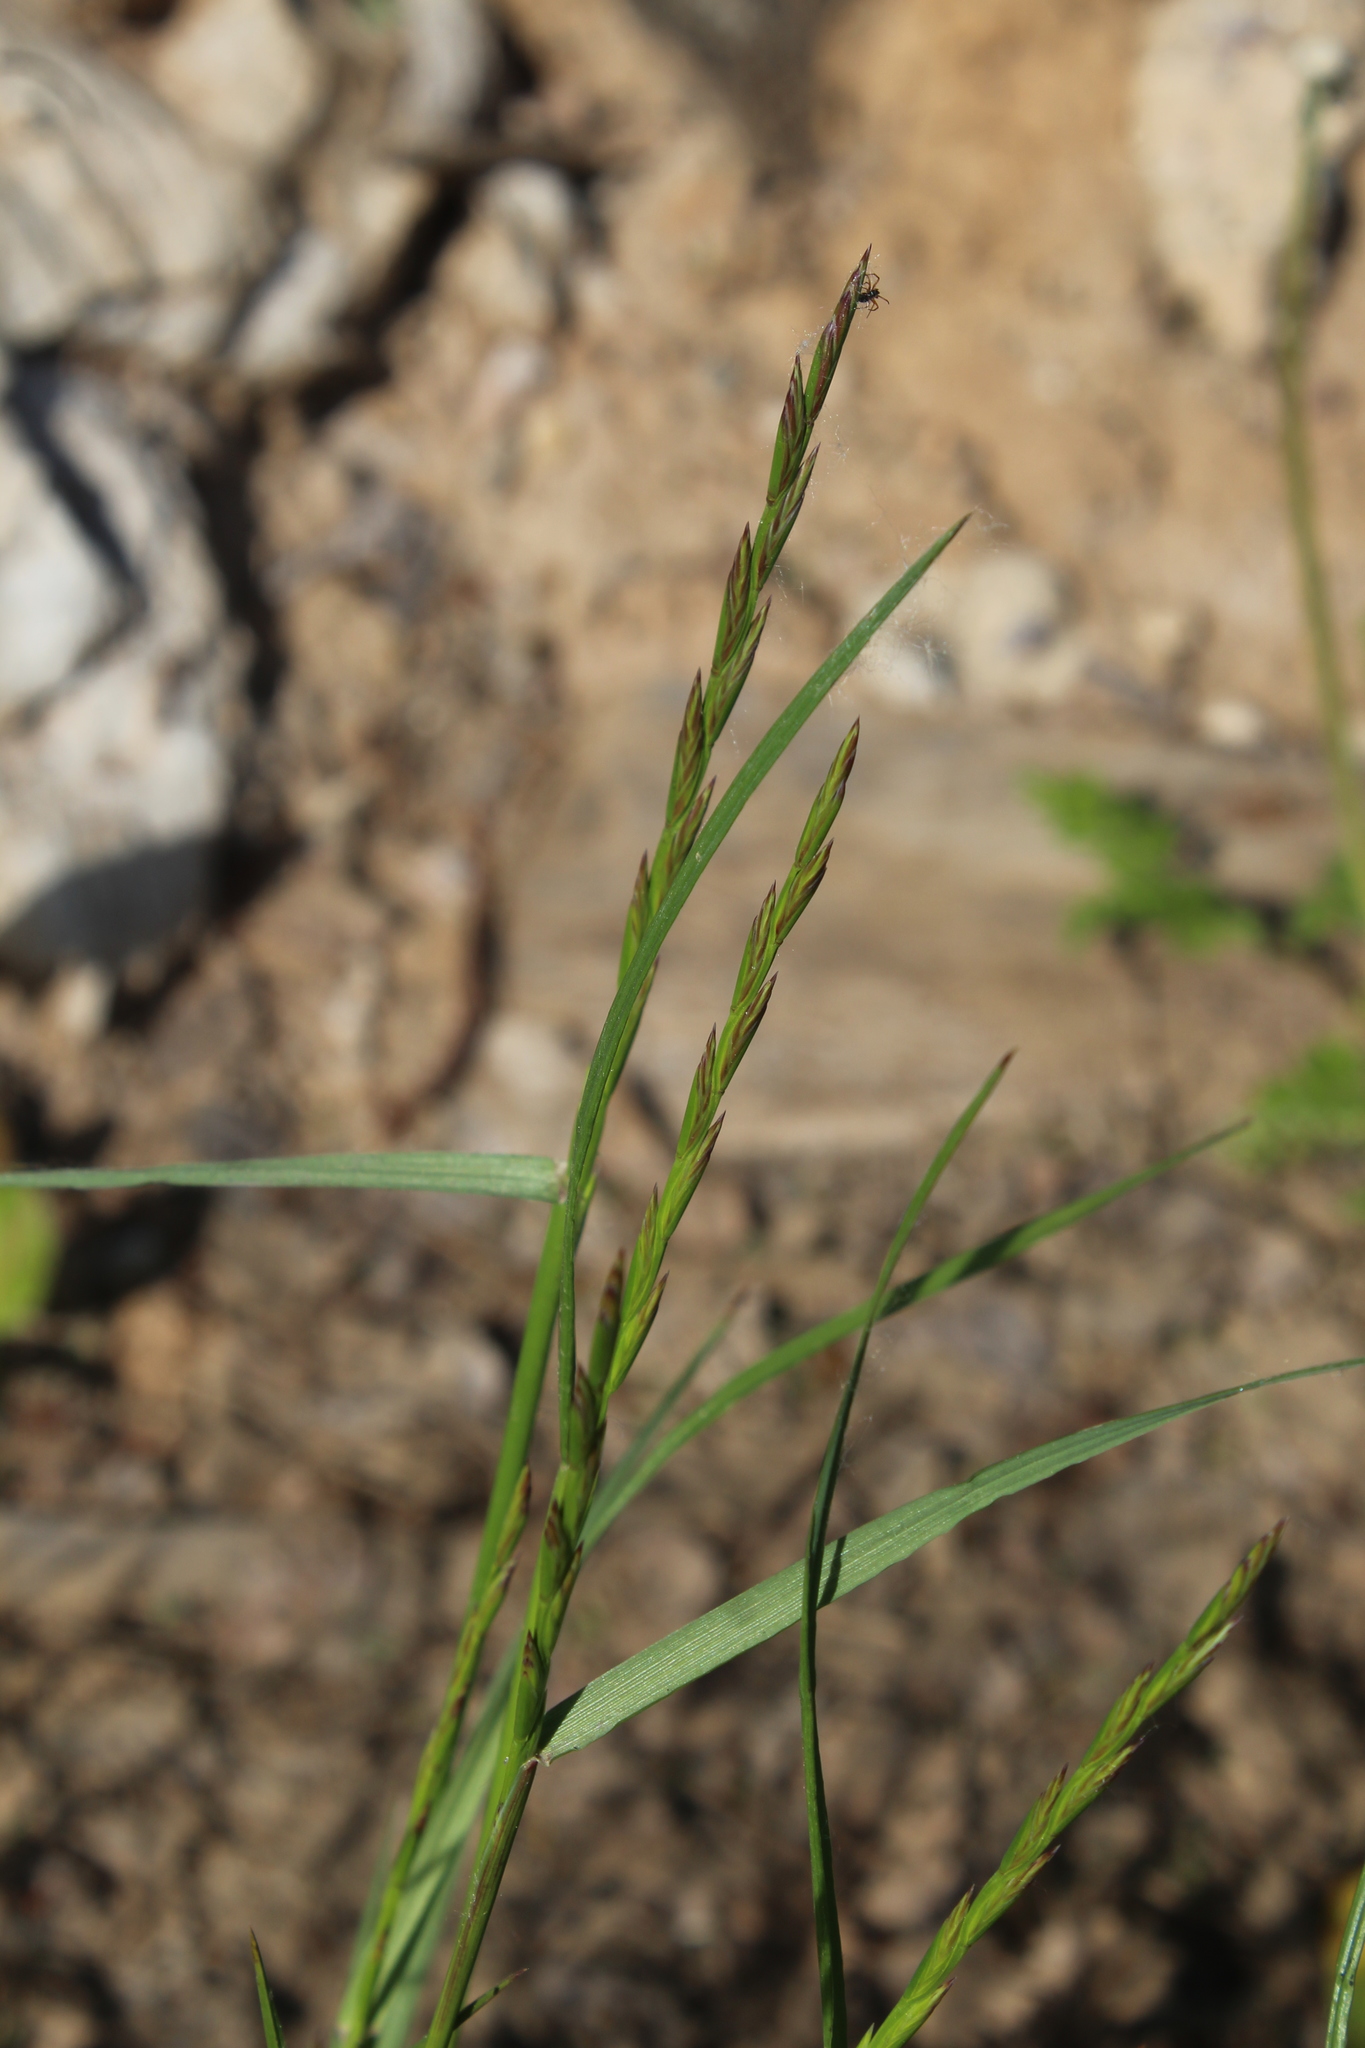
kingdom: Plantae
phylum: Tracheophyta
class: Liliopsida
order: Poales
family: Poaceae
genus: Lolium
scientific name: Lolium perenne
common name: Perennial ryegrass
